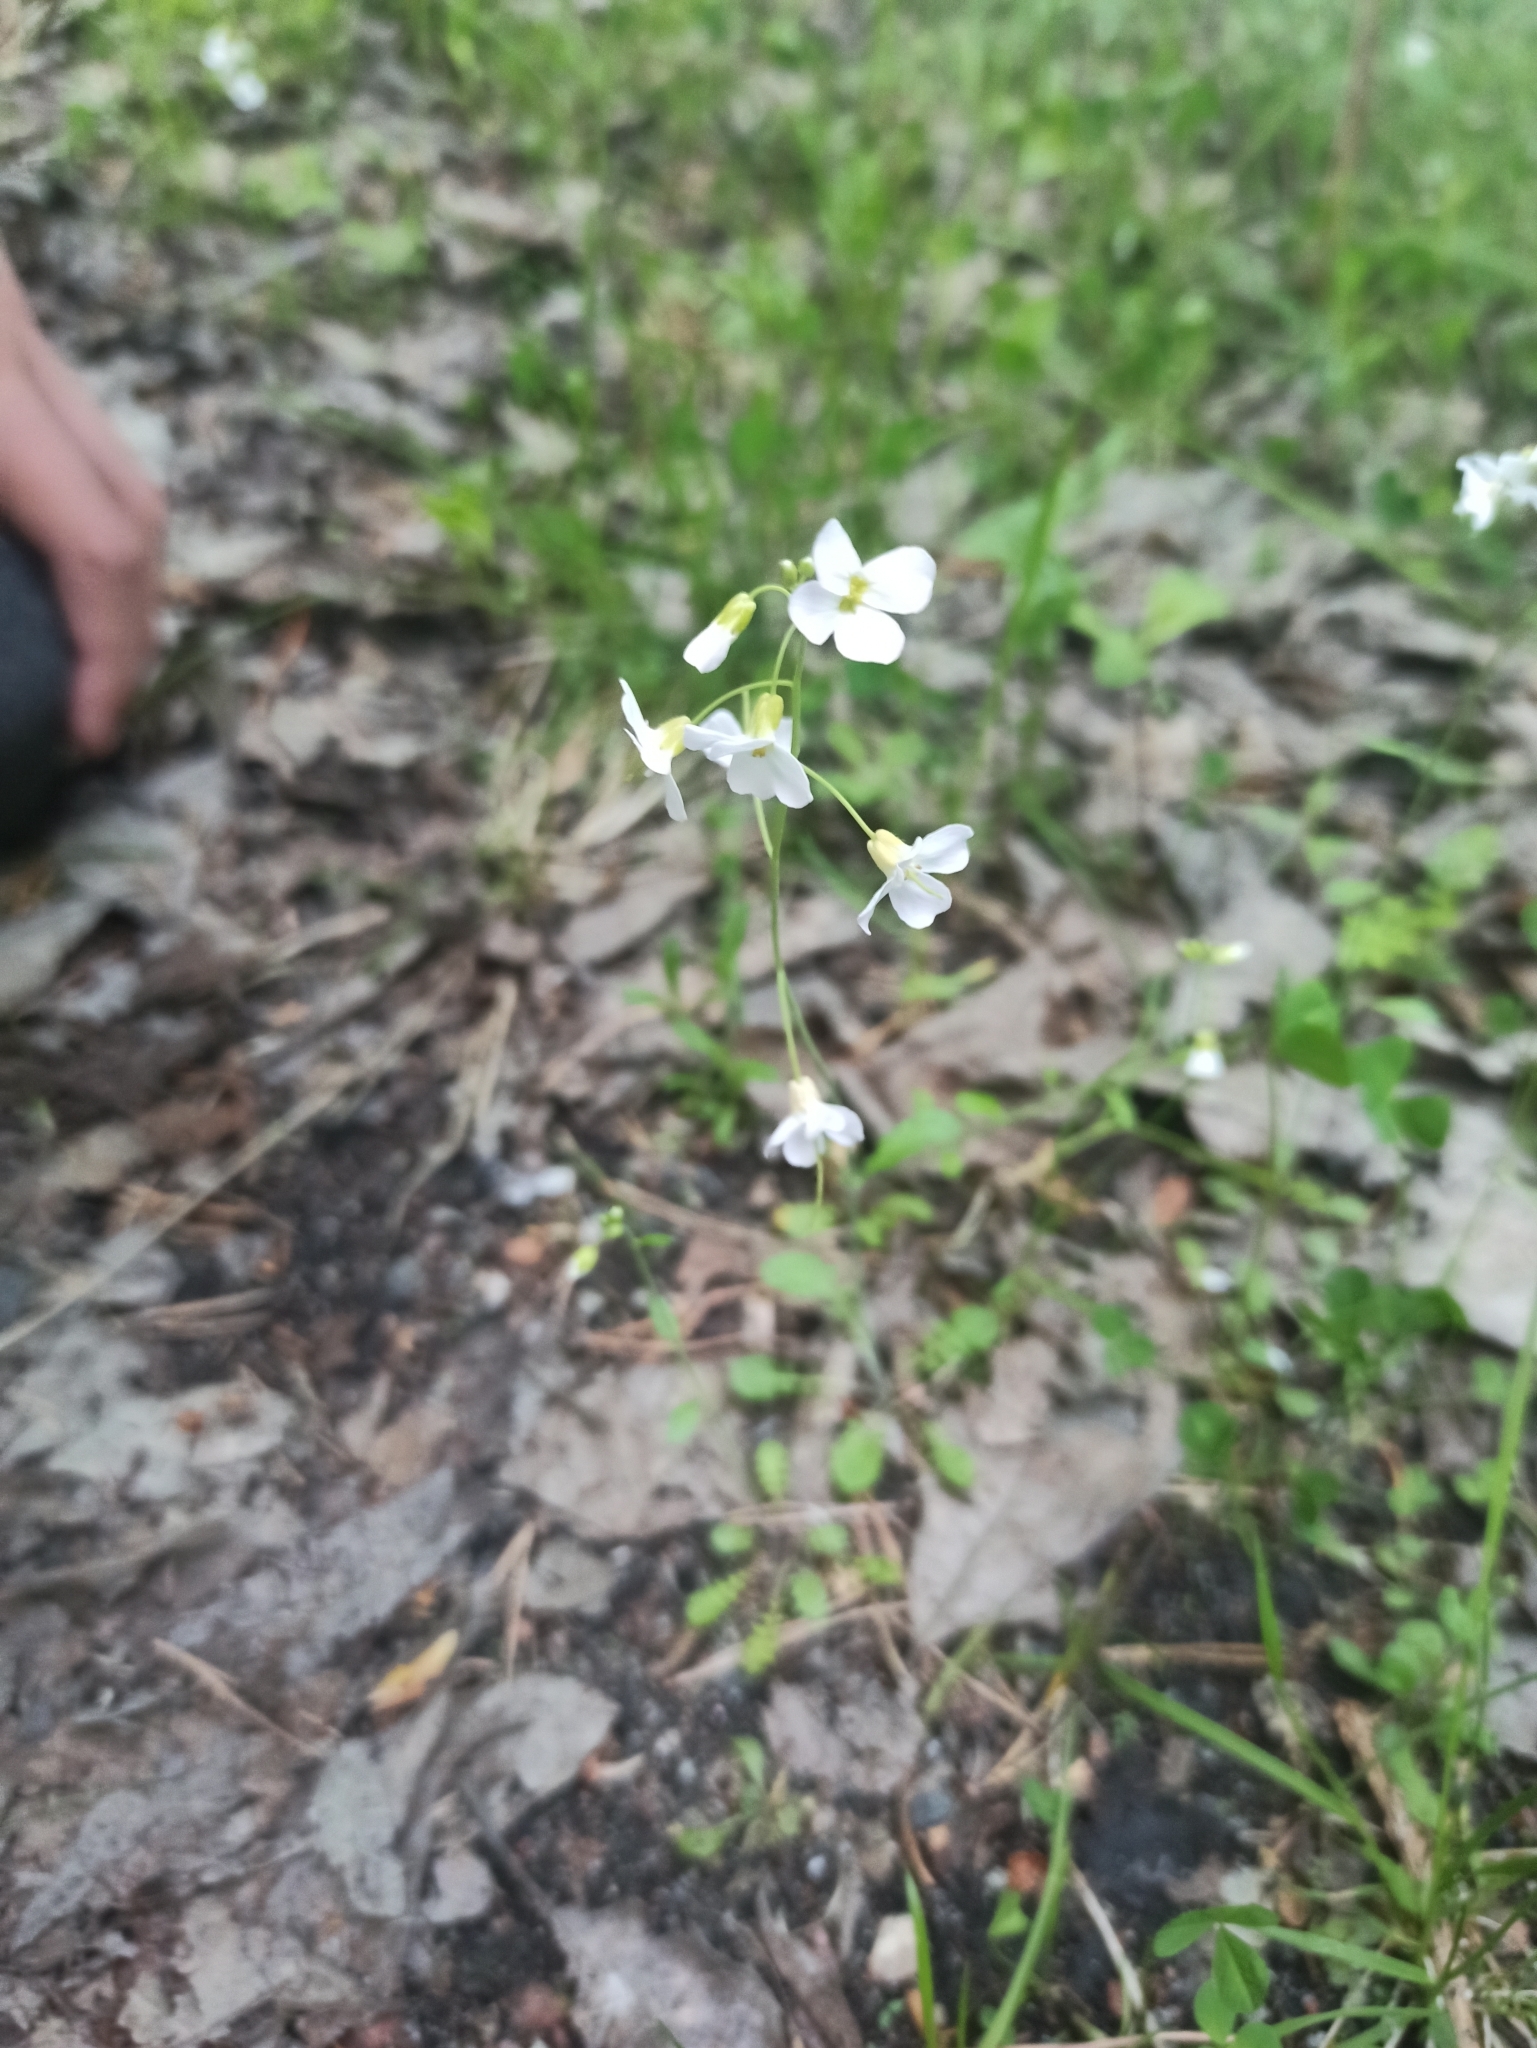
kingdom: Plantae
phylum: Tracheophyta
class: Magnoliopsida
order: Brassicales
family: Brassicaceae
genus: Arabidopsis
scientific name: Arabidopsis arenosa
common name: Sand rock-cress
